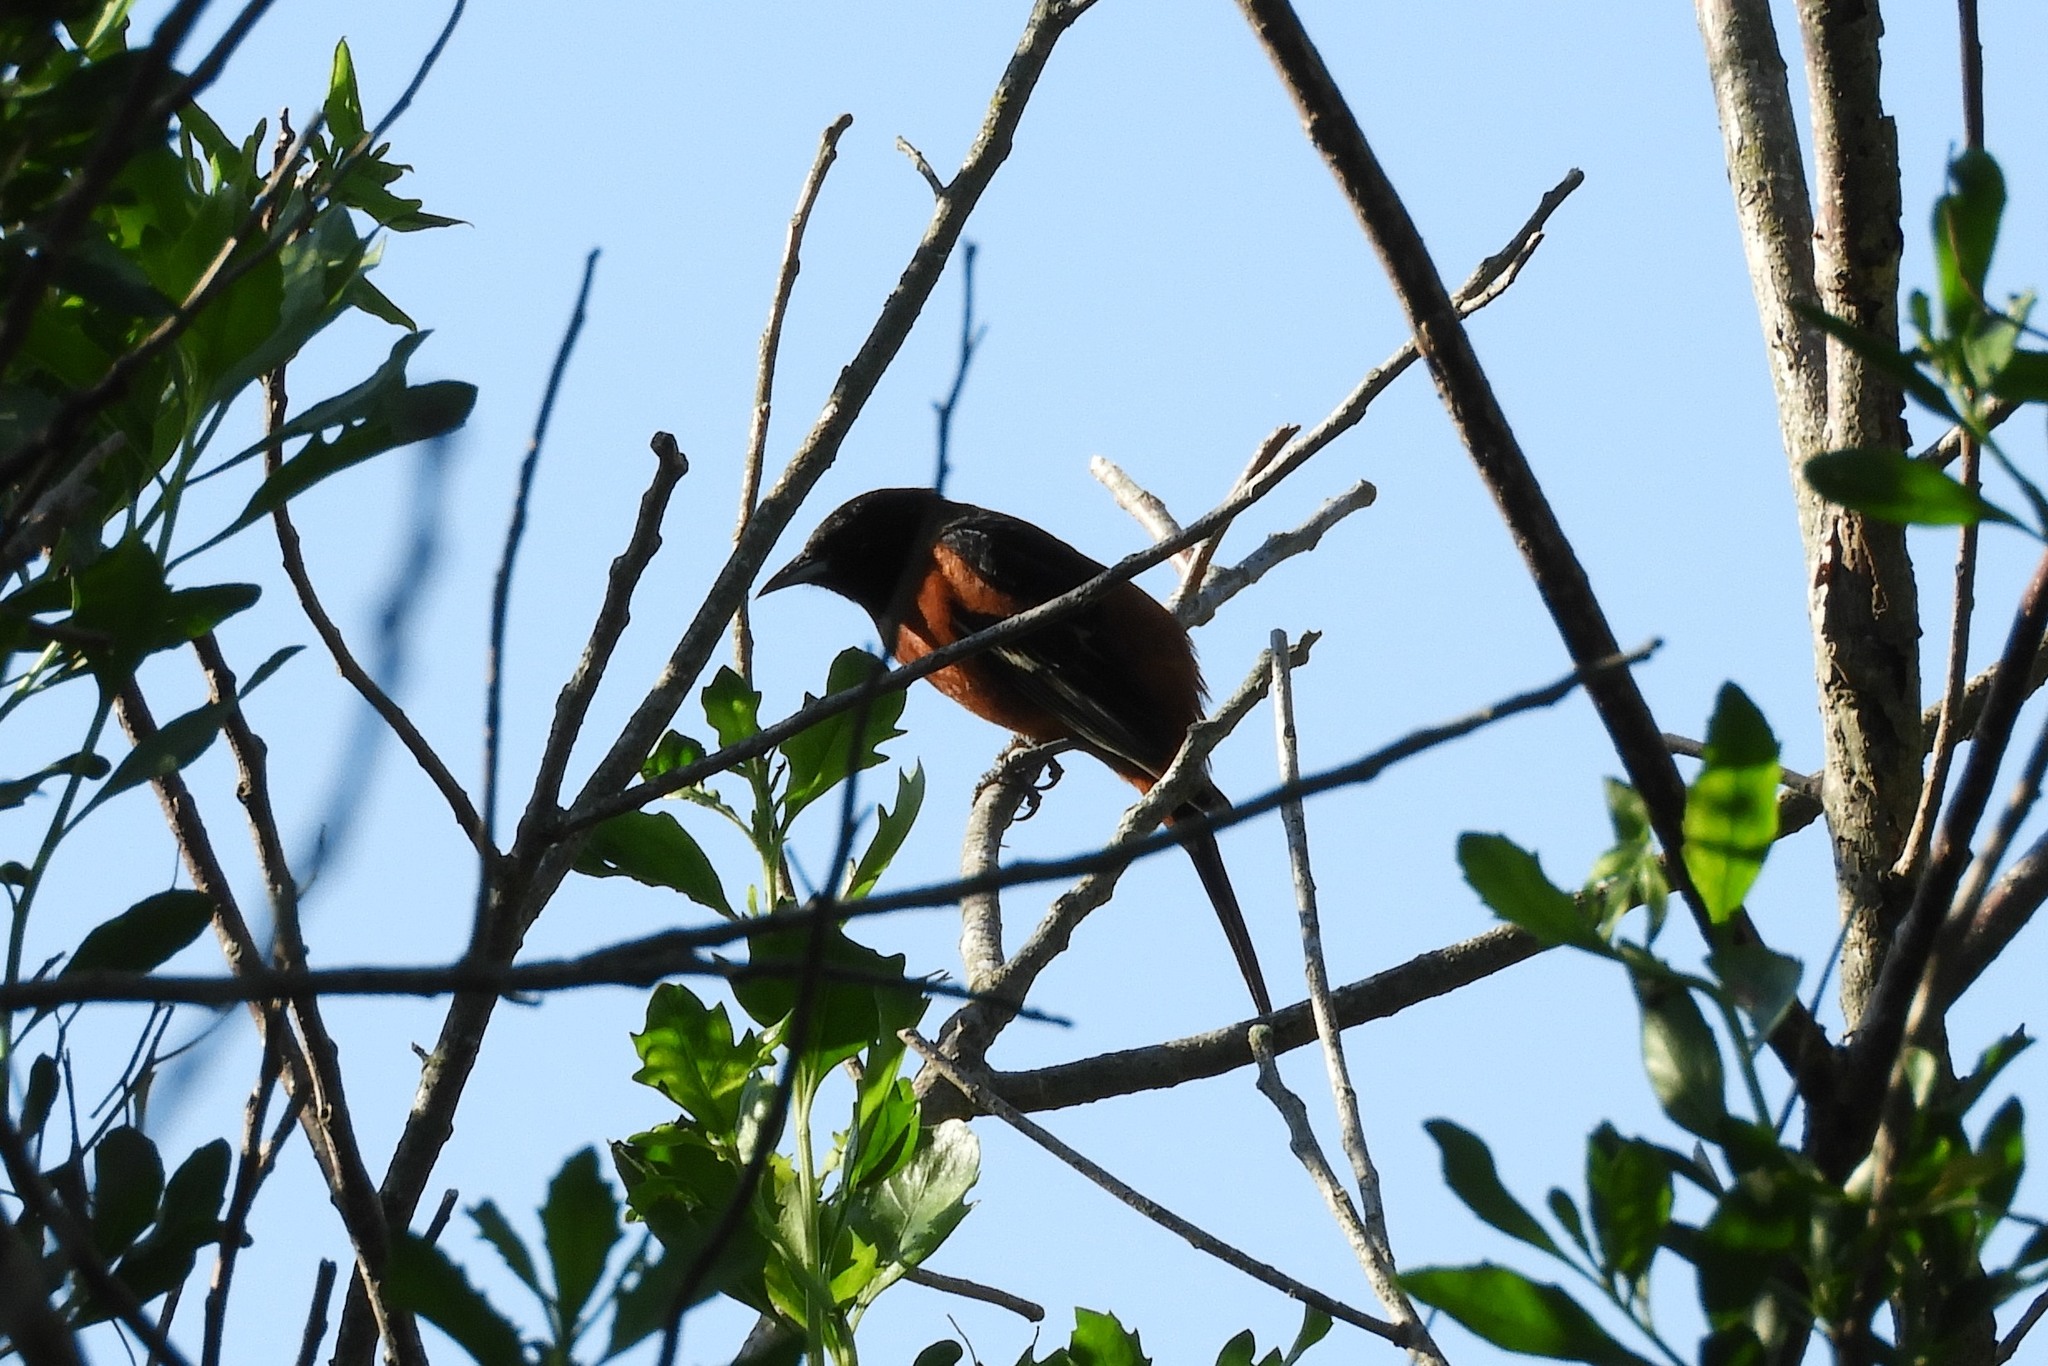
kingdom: Animalia
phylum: Chordata
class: Aves
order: Passeriformes
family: Icteridae
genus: Icterus
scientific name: Icterus spurius
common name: Orchard oriole
